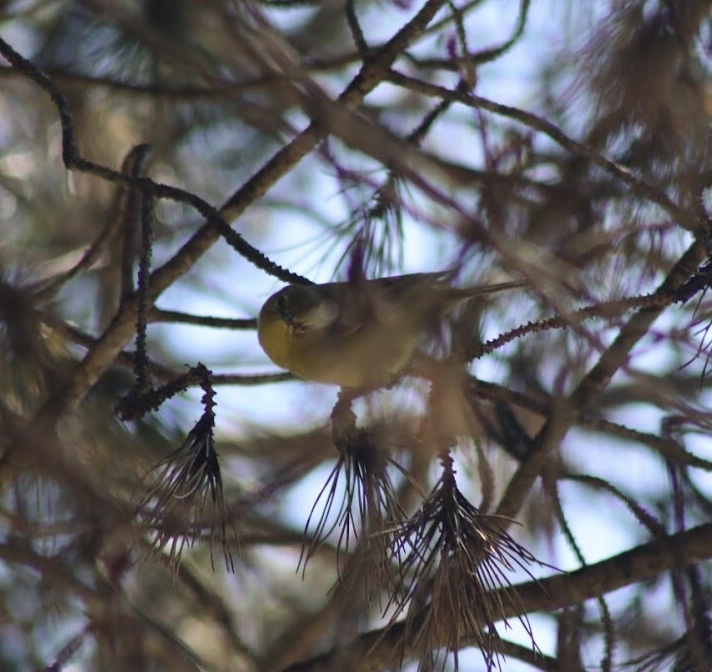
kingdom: Animalia
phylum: Chordata
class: Aves
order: Passeriformes
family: Parulidae
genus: Leiothlypis
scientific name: Leiothlypis celata
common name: Orange-crowned warbler
